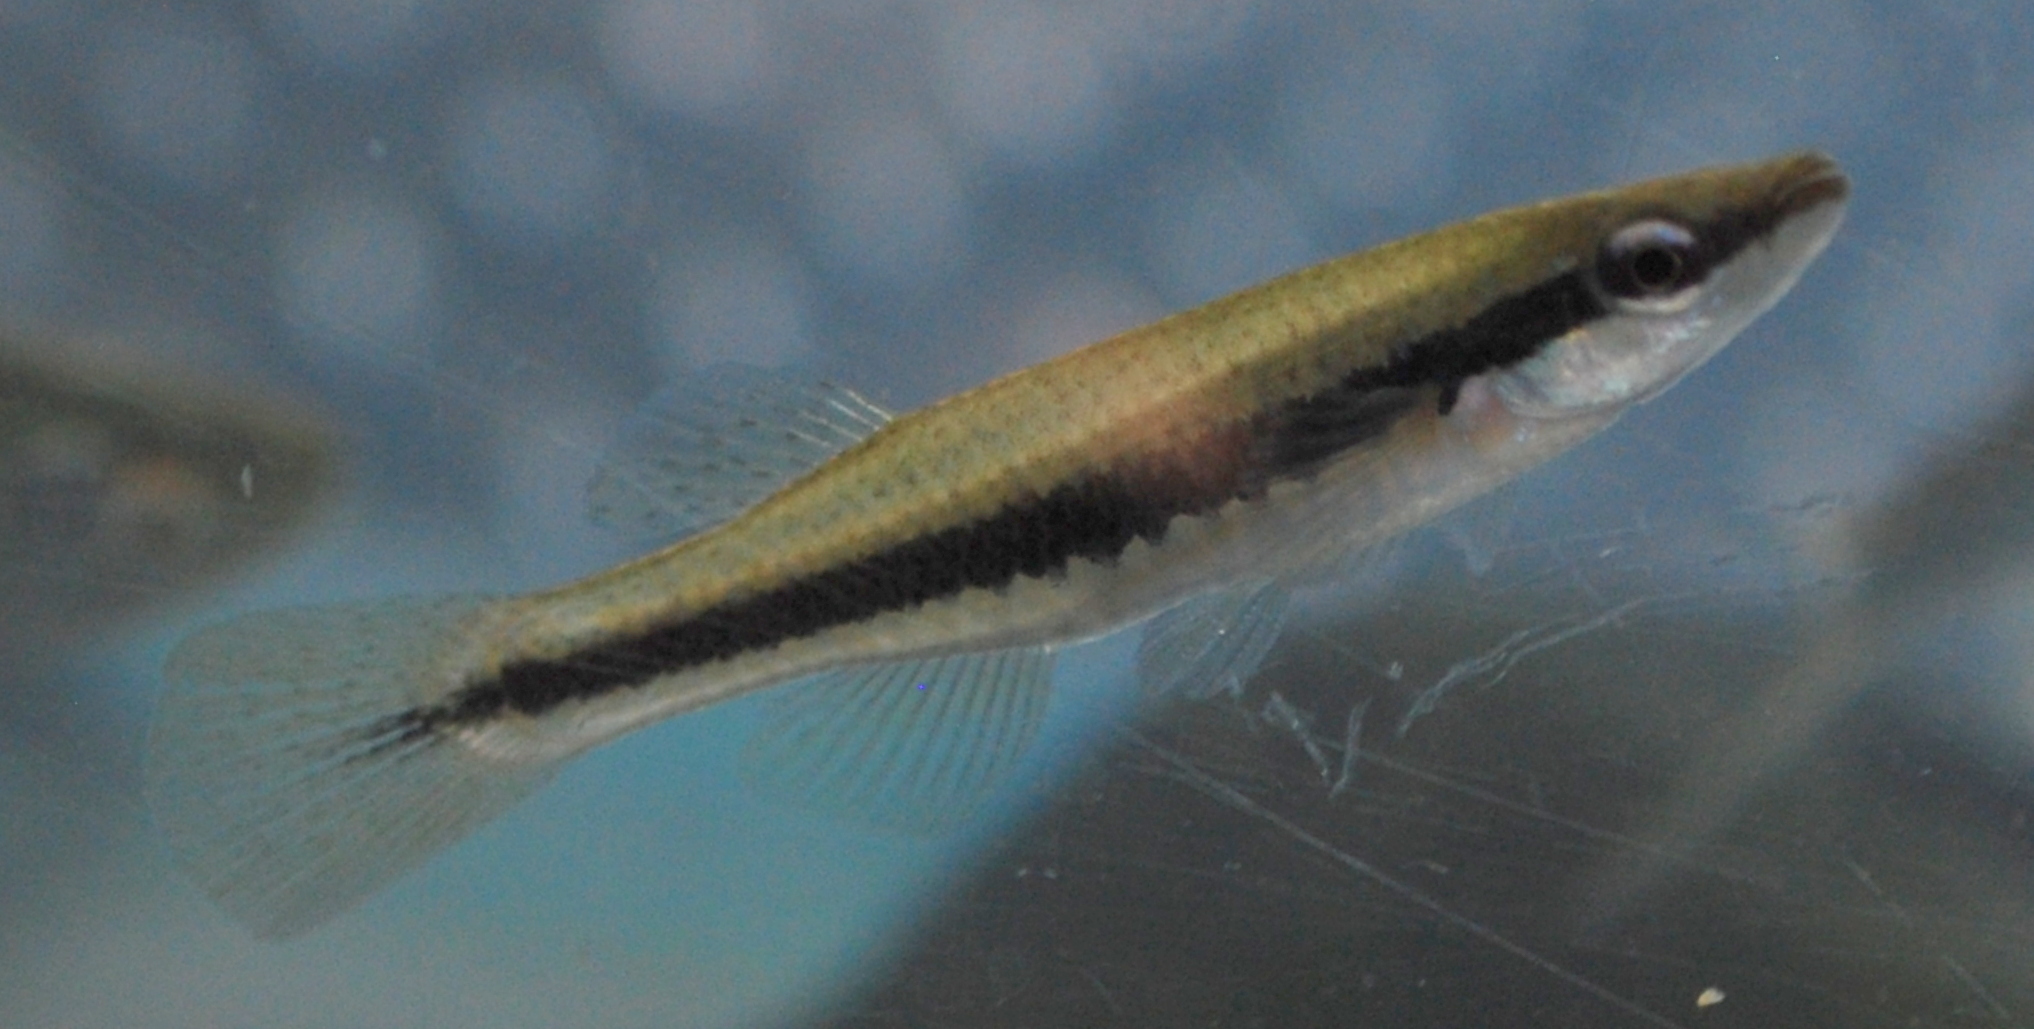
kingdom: Animalia
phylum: Chordata
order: Cyprinodontiformes
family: Fundulidae
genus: Fundulus
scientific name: Fundulus notatus
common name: Blackstripe topminnow
